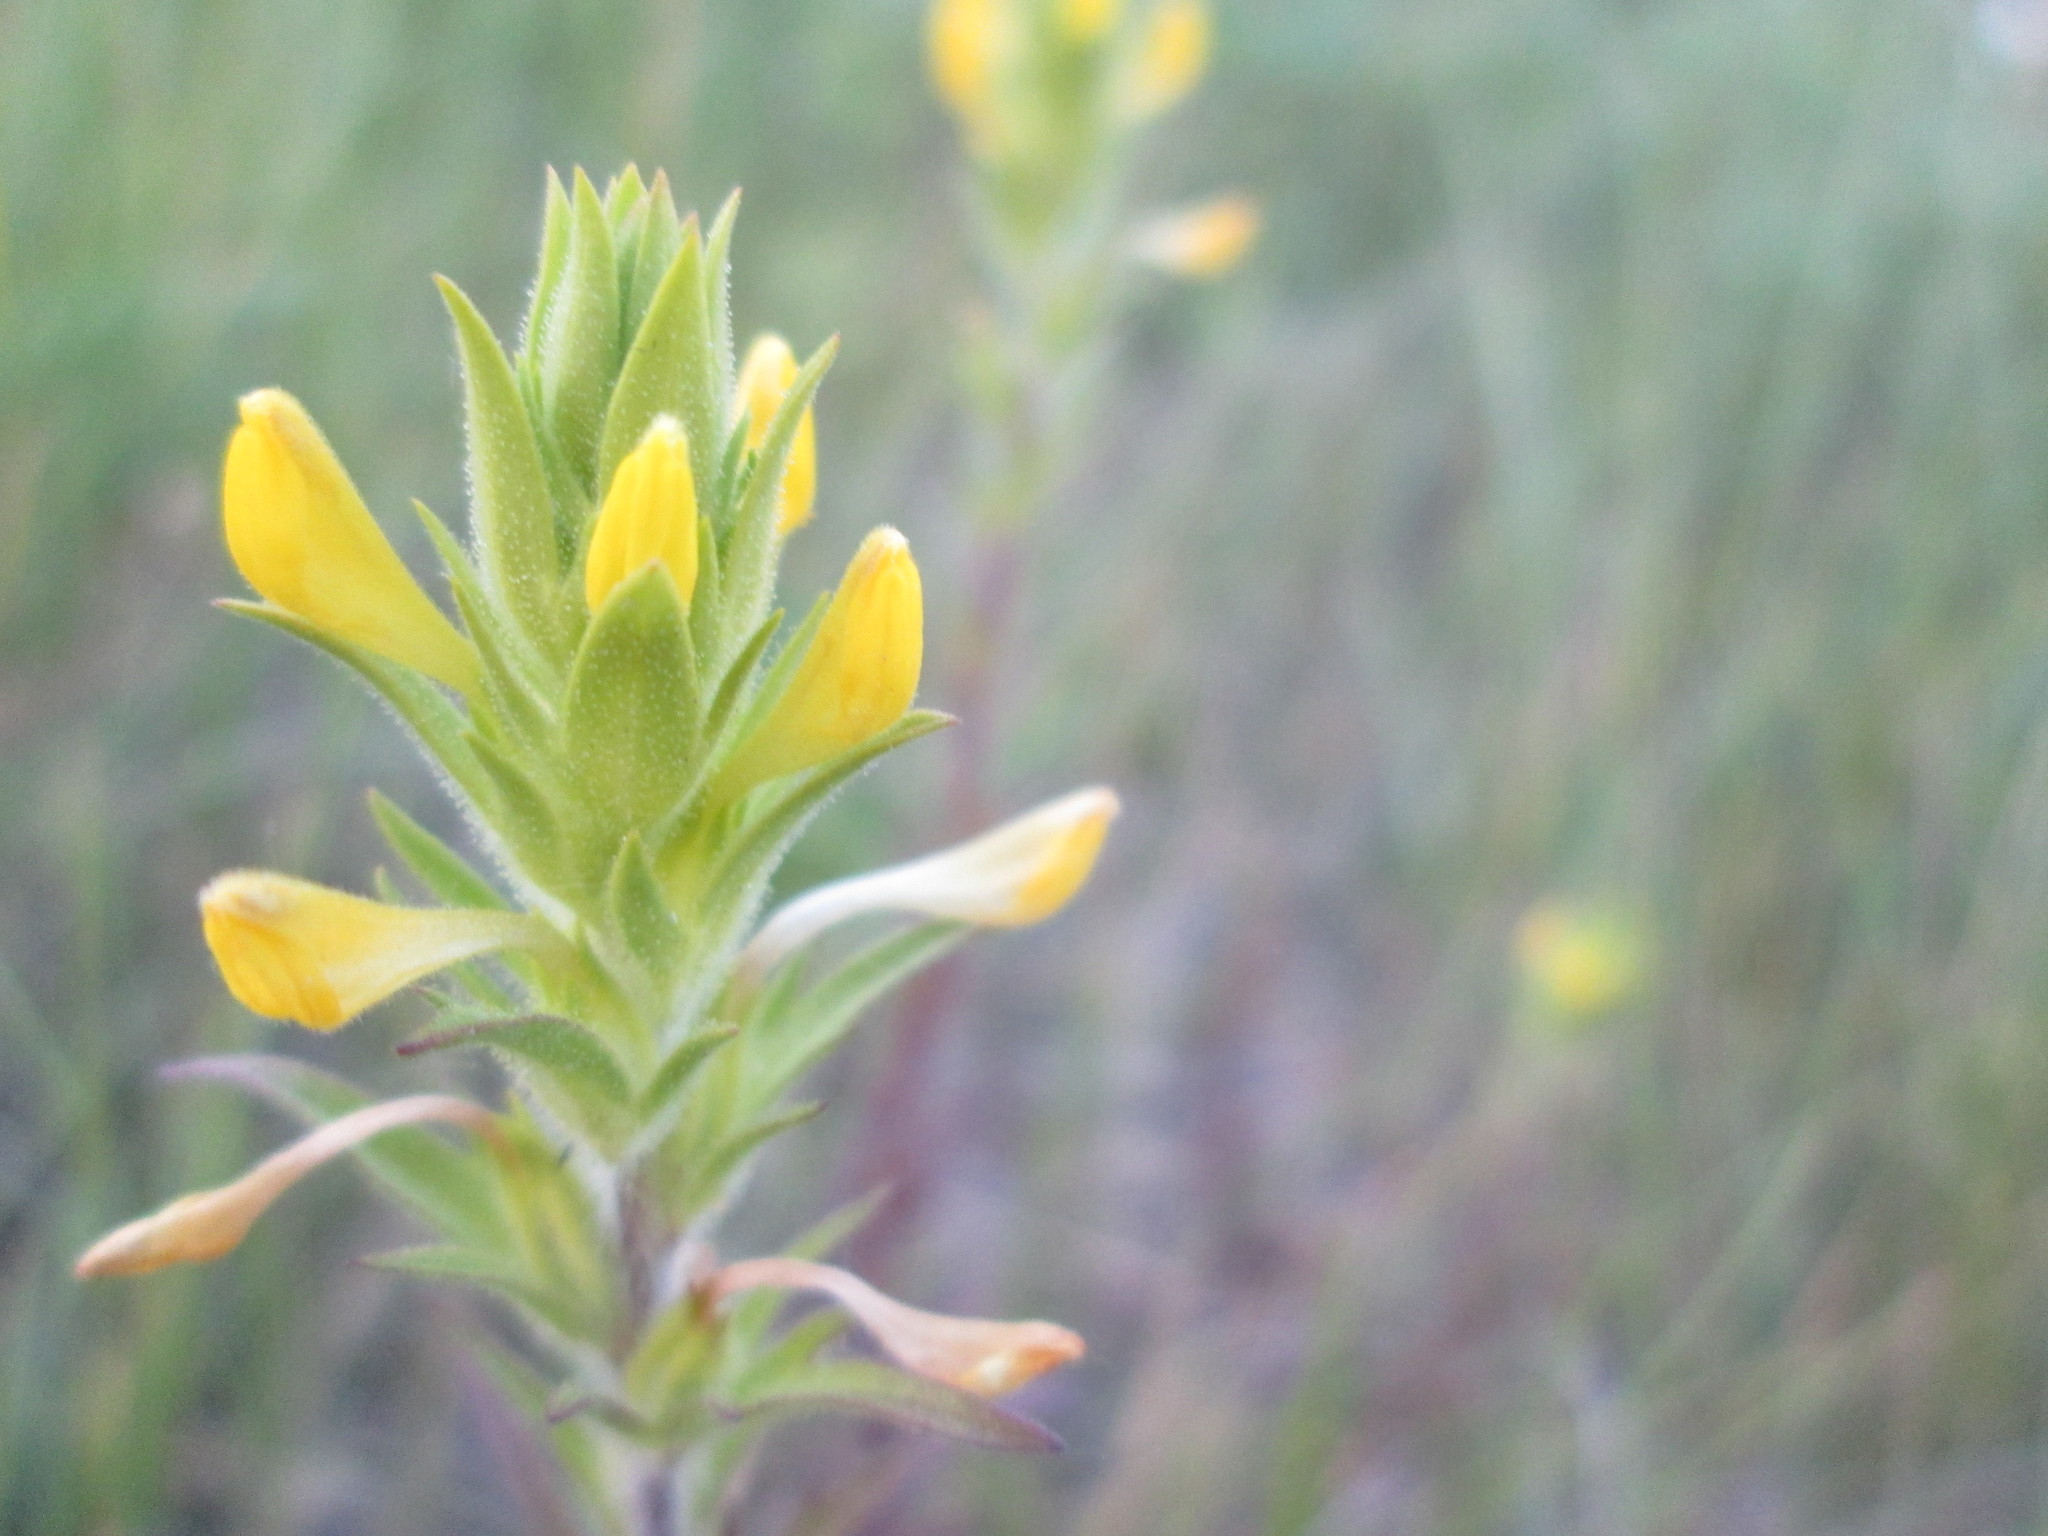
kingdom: Plantae
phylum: Tracheophyta
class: Magnoliopsida
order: Lamiales
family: Orobanchaceae
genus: Orthocarpus
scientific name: Orthocarpus luteus
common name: Golden-tongue owl's-clover
